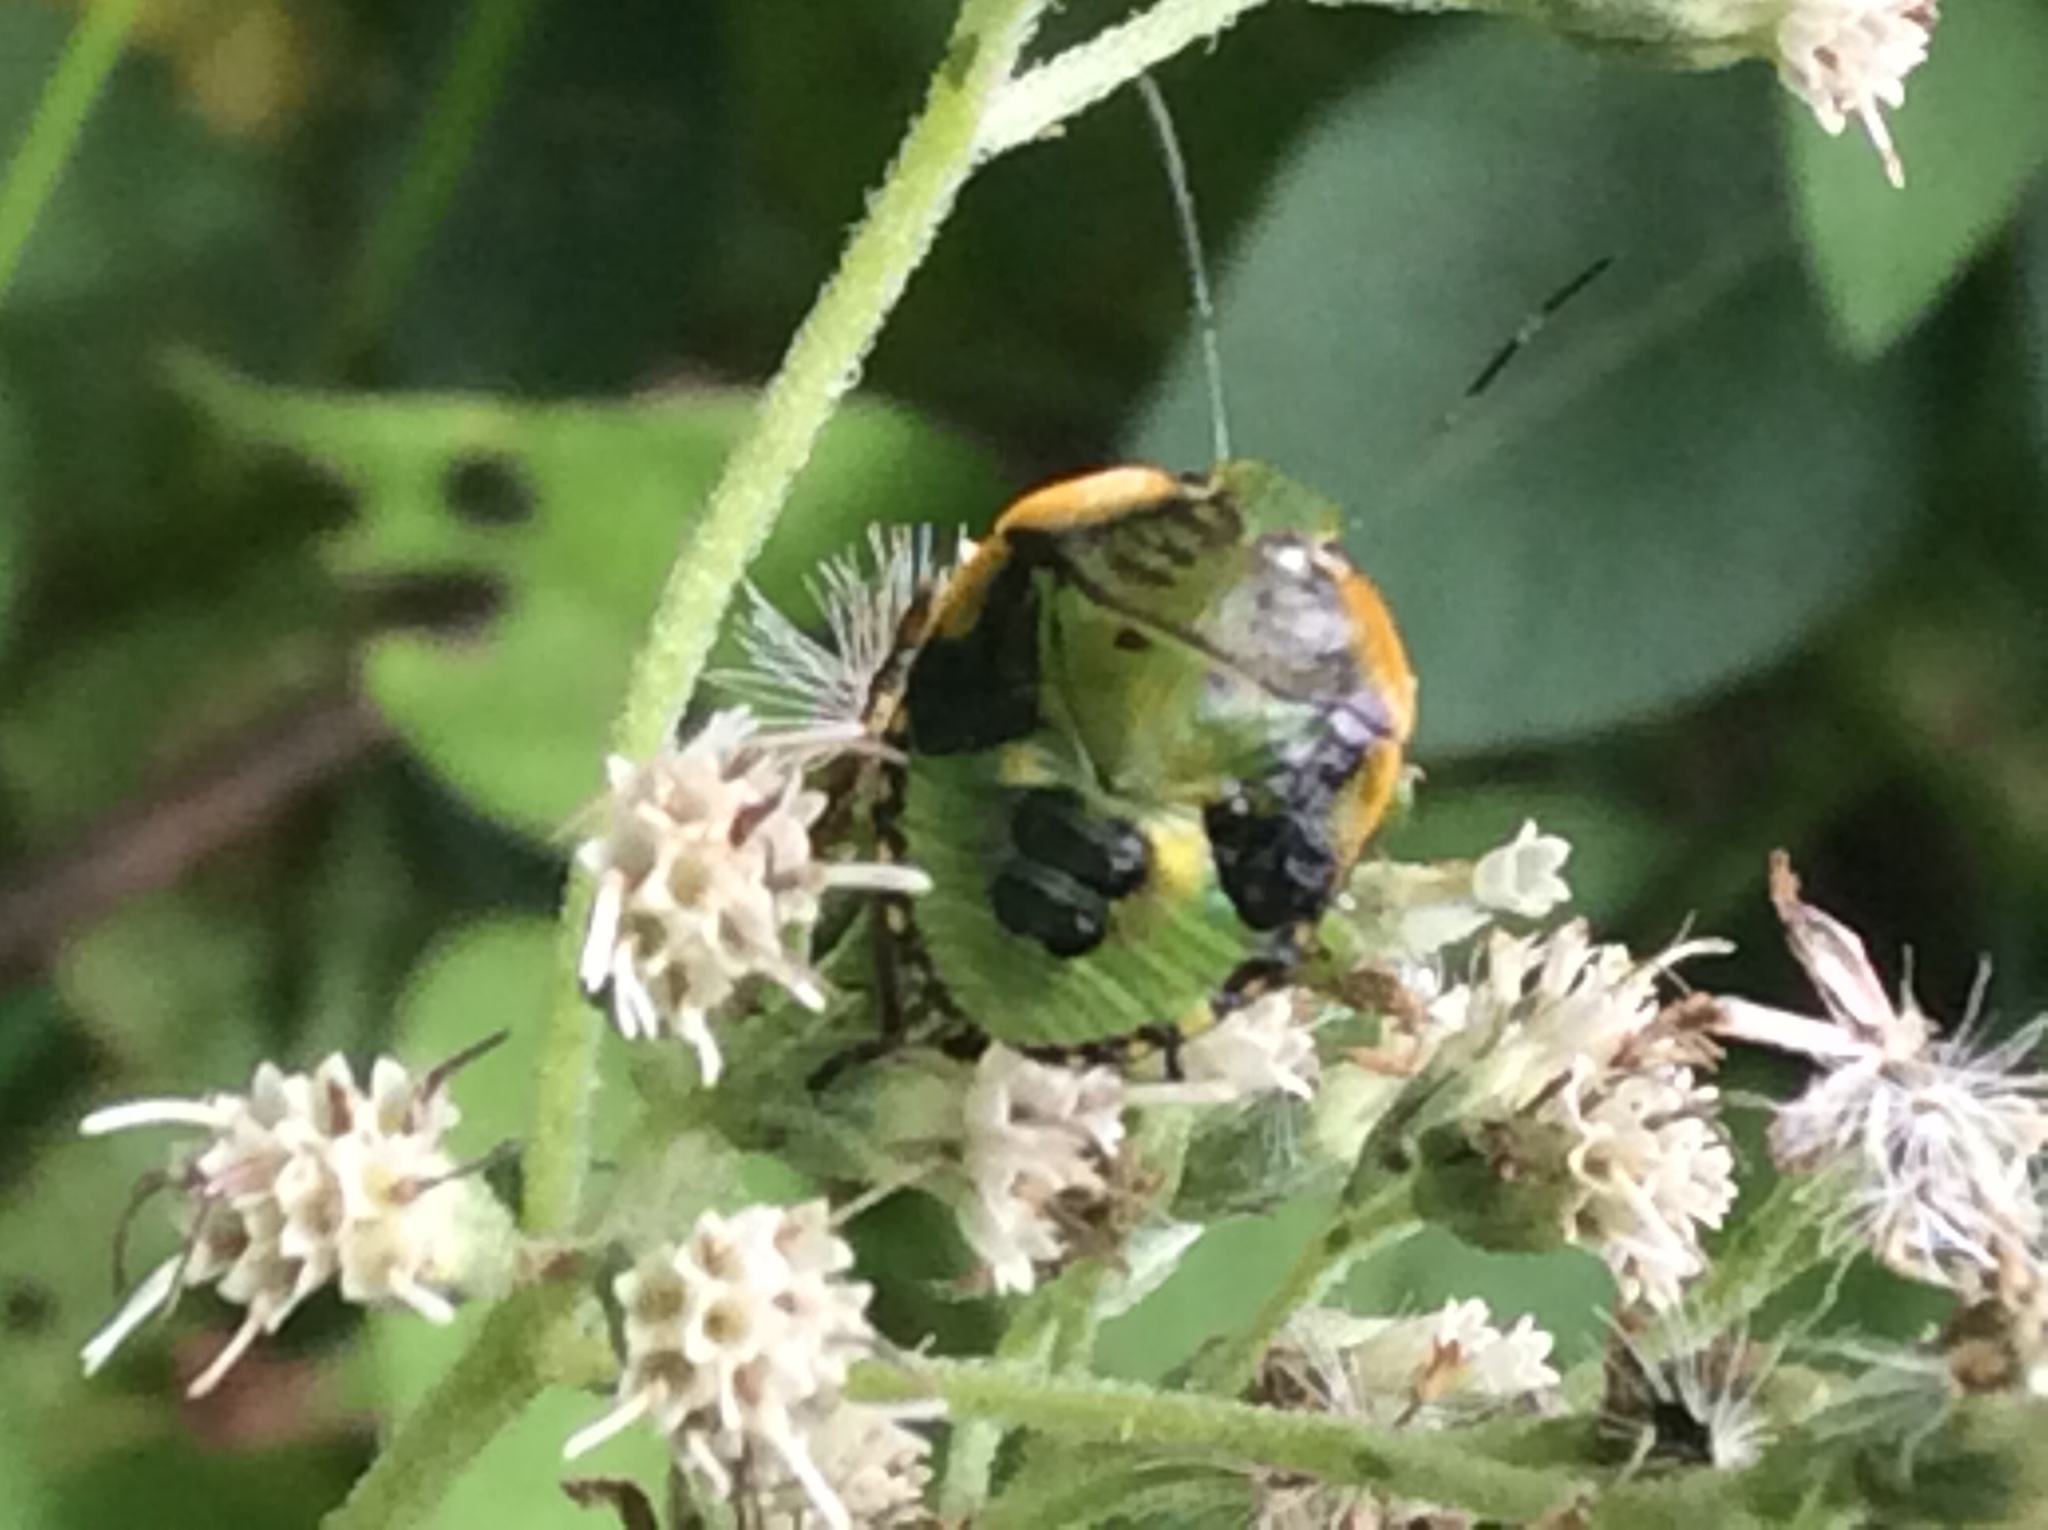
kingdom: Animalia
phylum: Arthropoda
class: Insecta
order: Hemiptera
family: Pentatomidae
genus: Chinavia
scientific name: Chinavia hilaris
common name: Green stink bug
